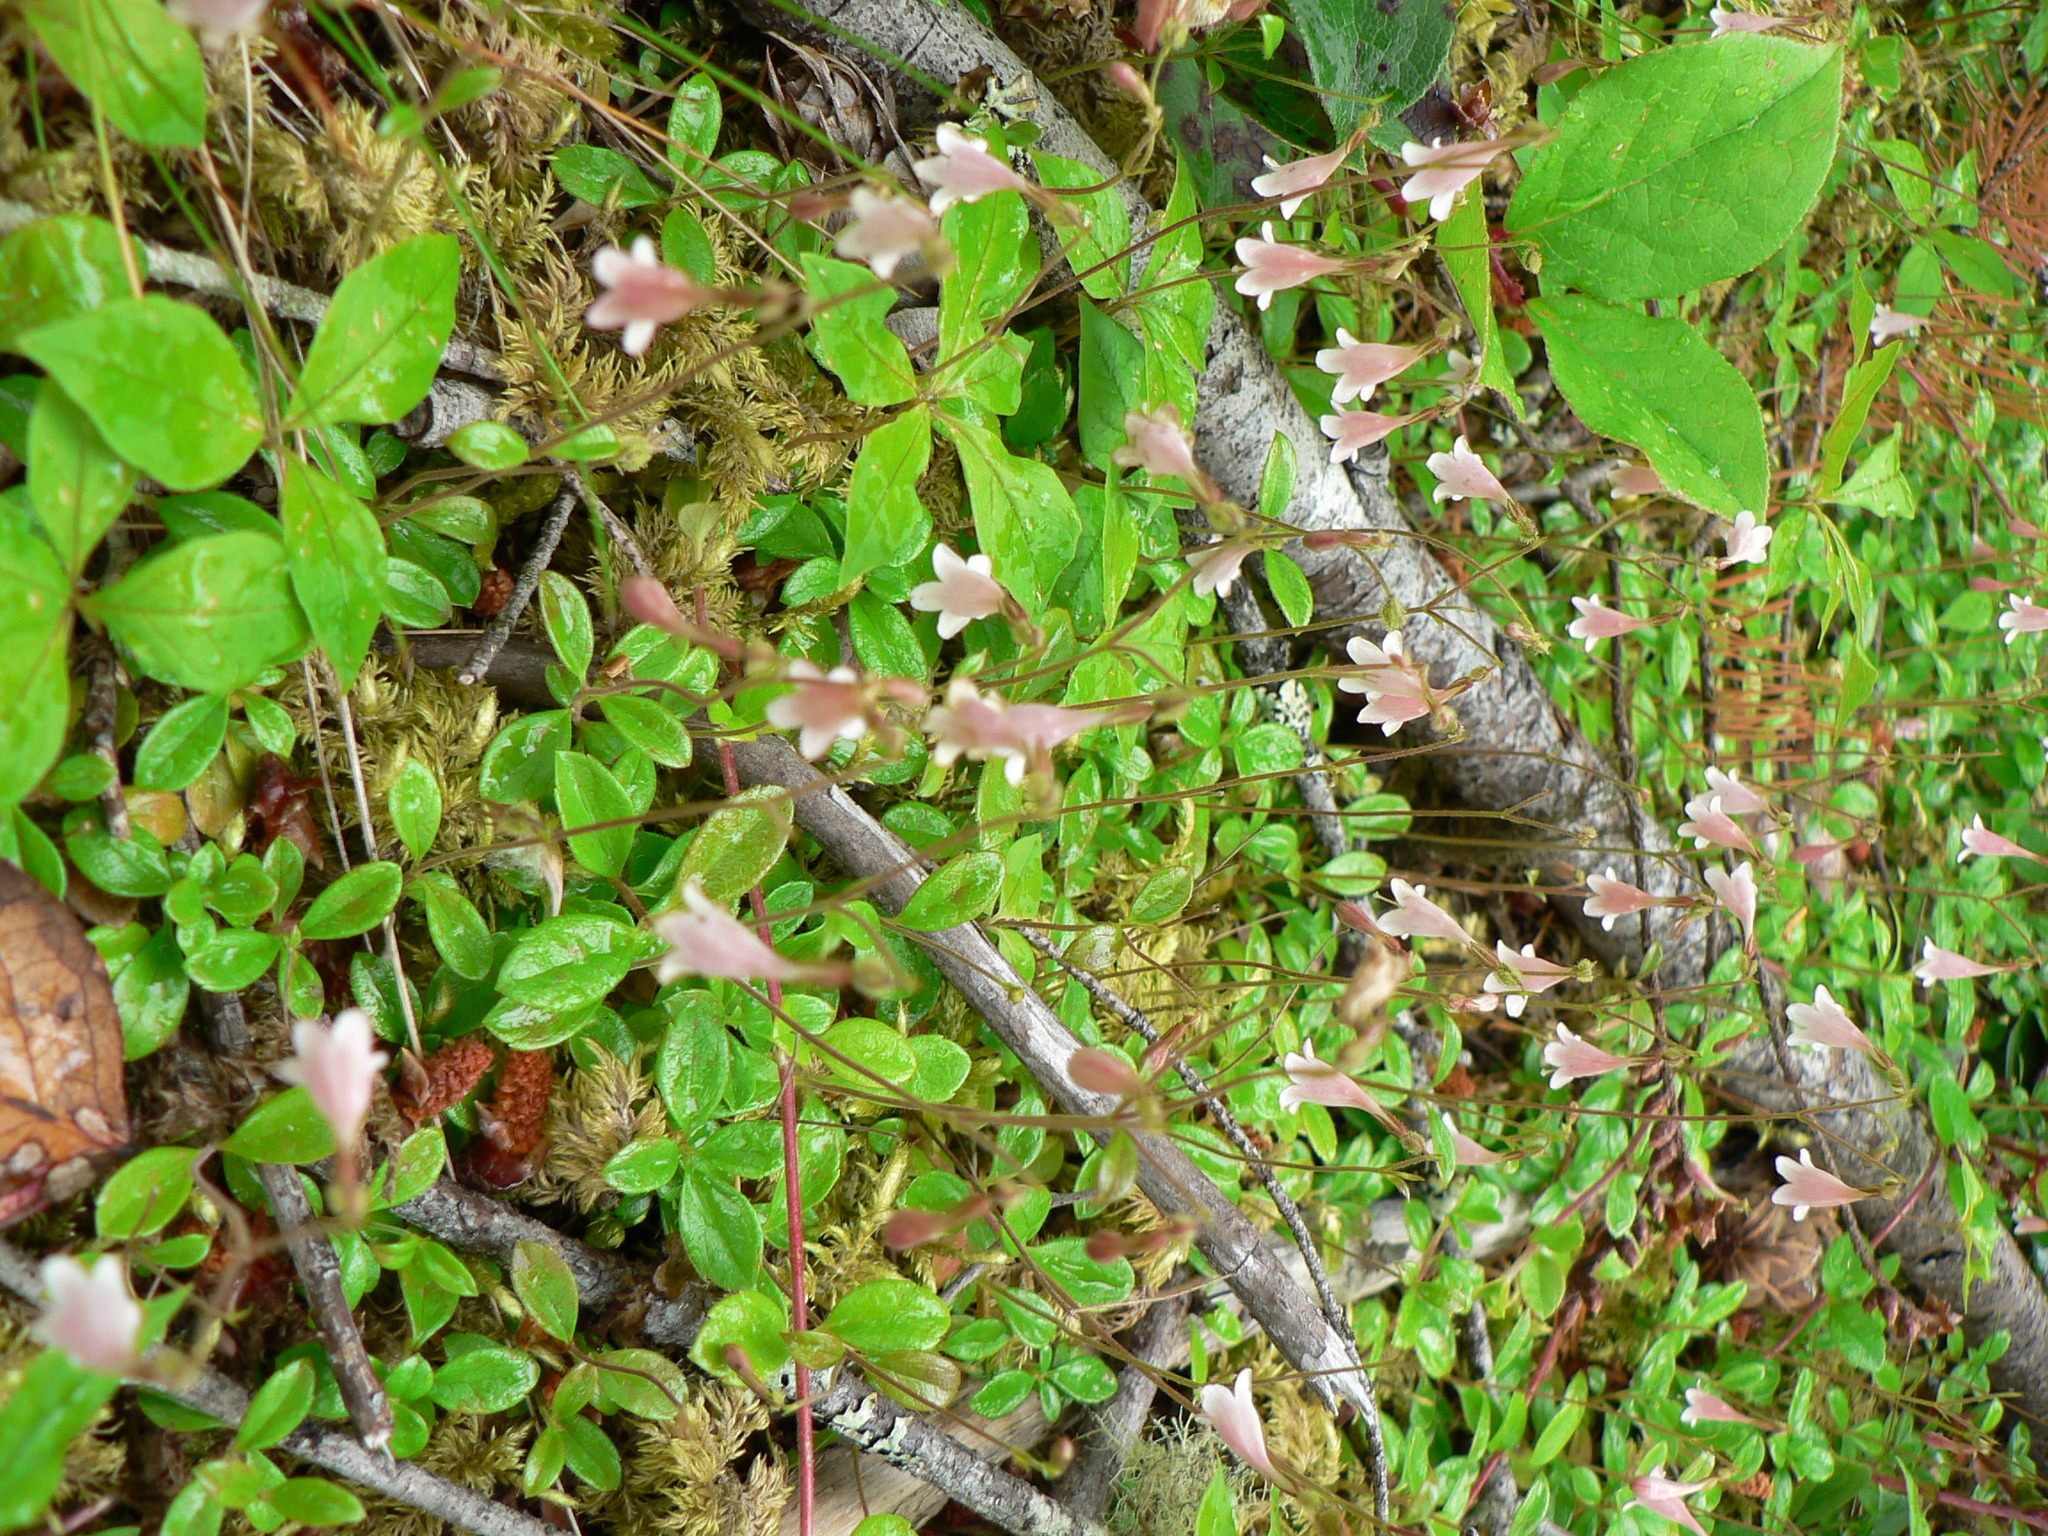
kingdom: Plantae
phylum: Tracheophyta
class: Magnoliopsida
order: Dipsacales
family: Caprifoliaceae
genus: Linnaea
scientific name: Linnaea borealis
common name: Twinflower
